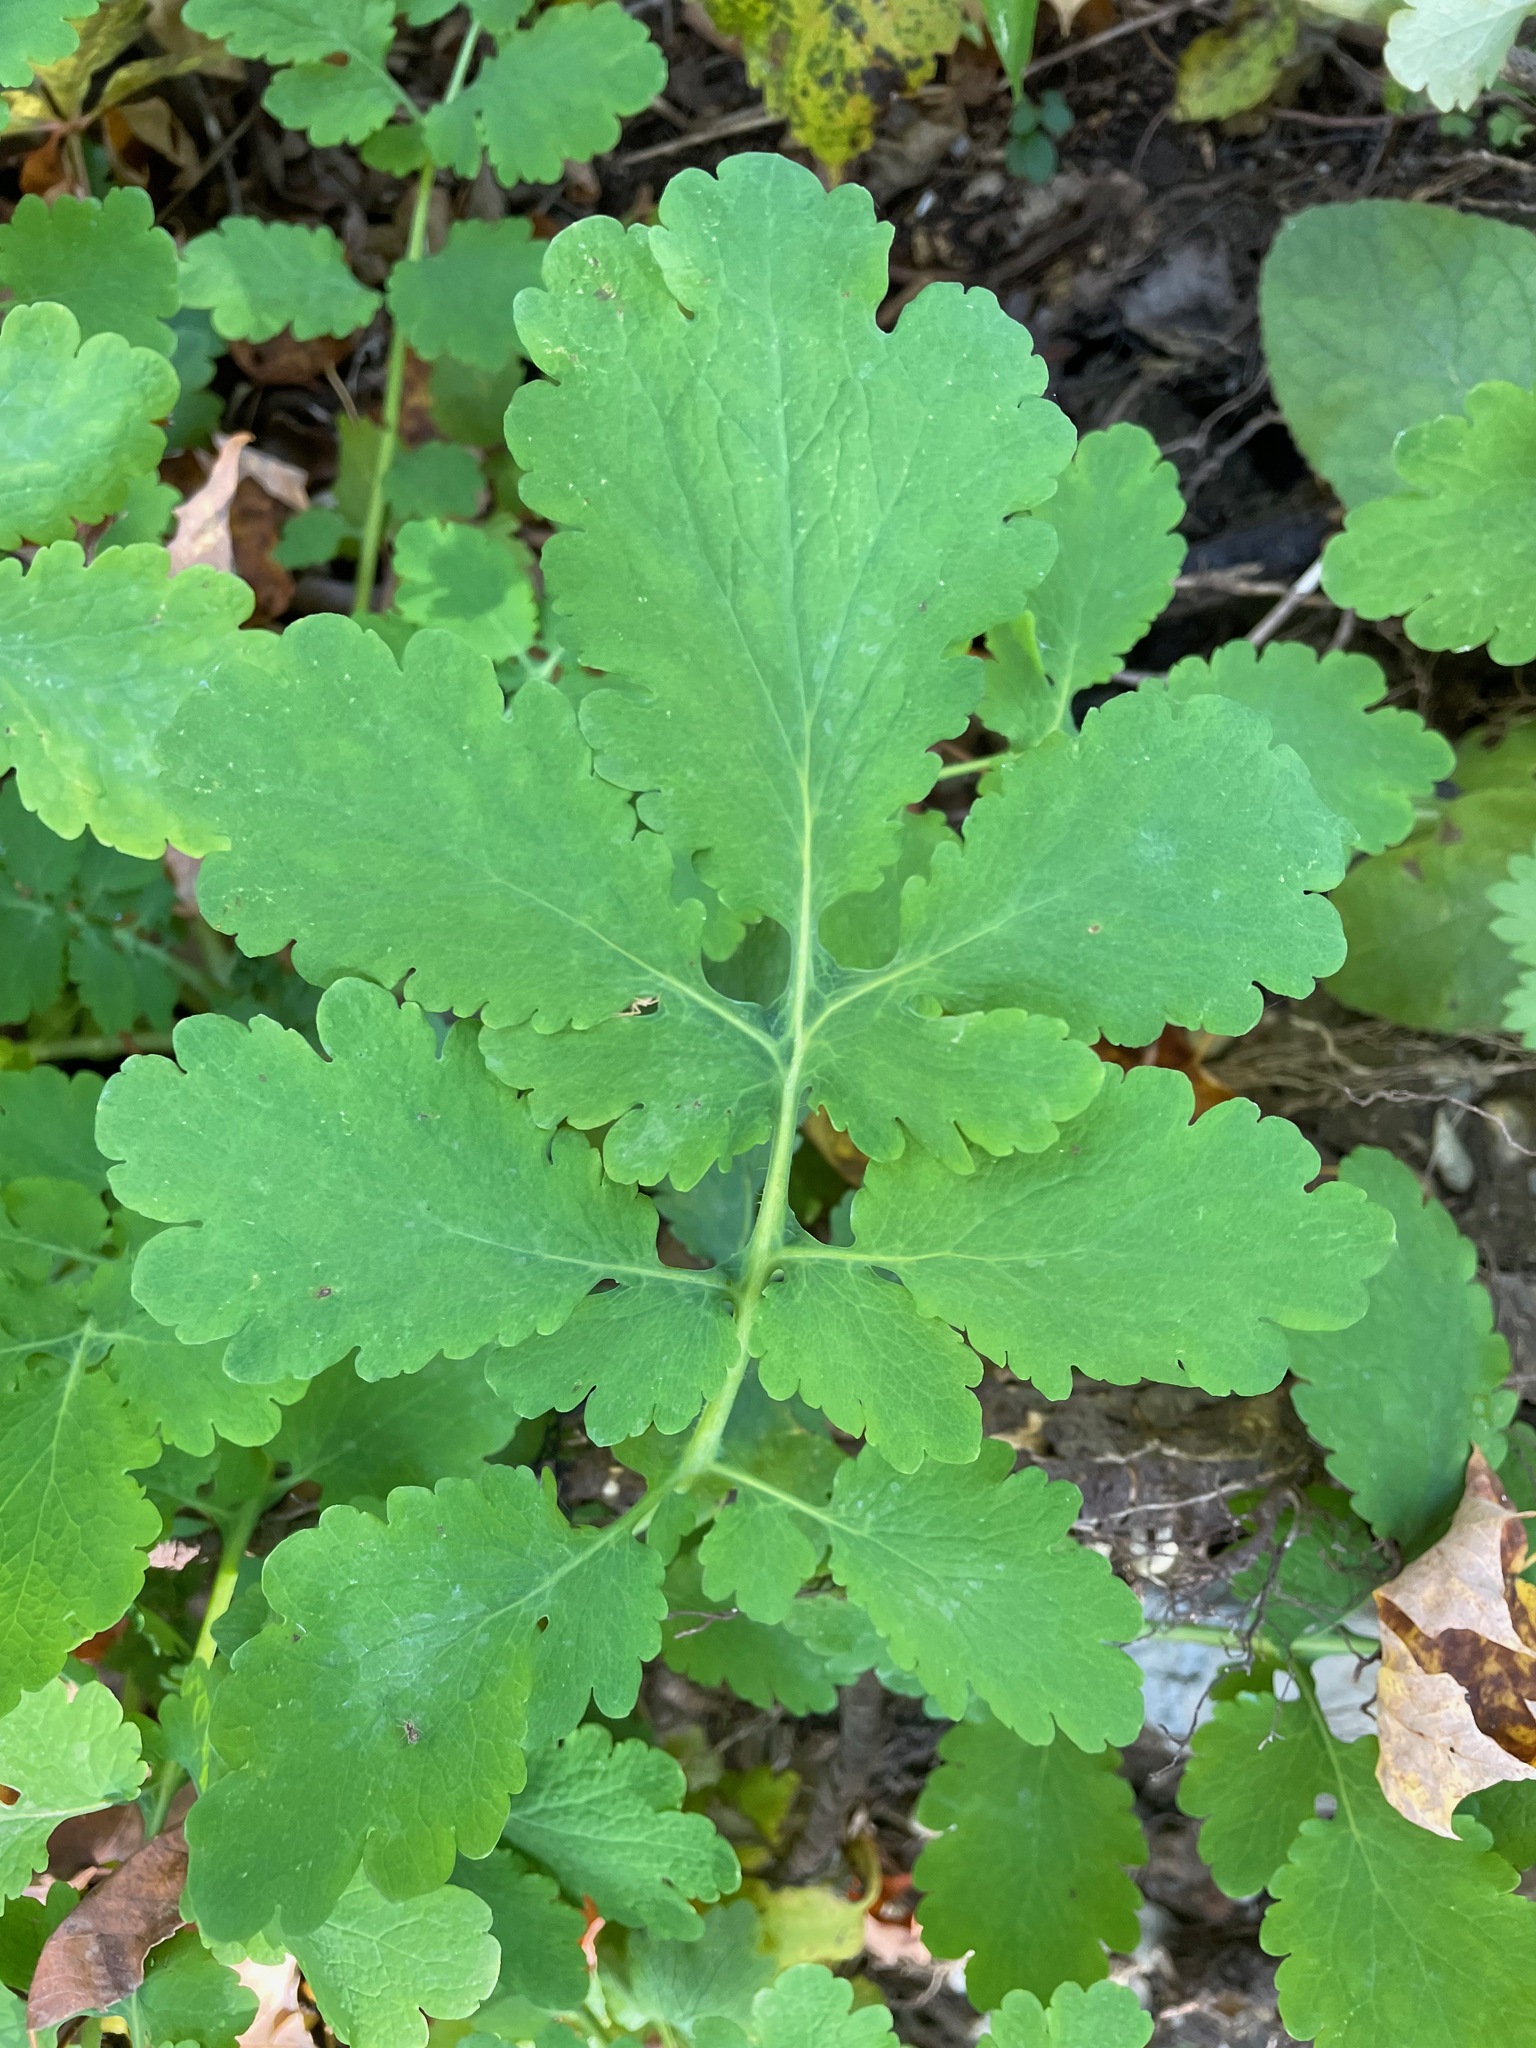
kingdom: Plantae
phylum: Tracheophyta
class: Magnoliopsida
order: Ranunculales
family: Papaveraceae
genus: Chelidonium
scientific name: Chelidonium majus
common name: Greater celandine
